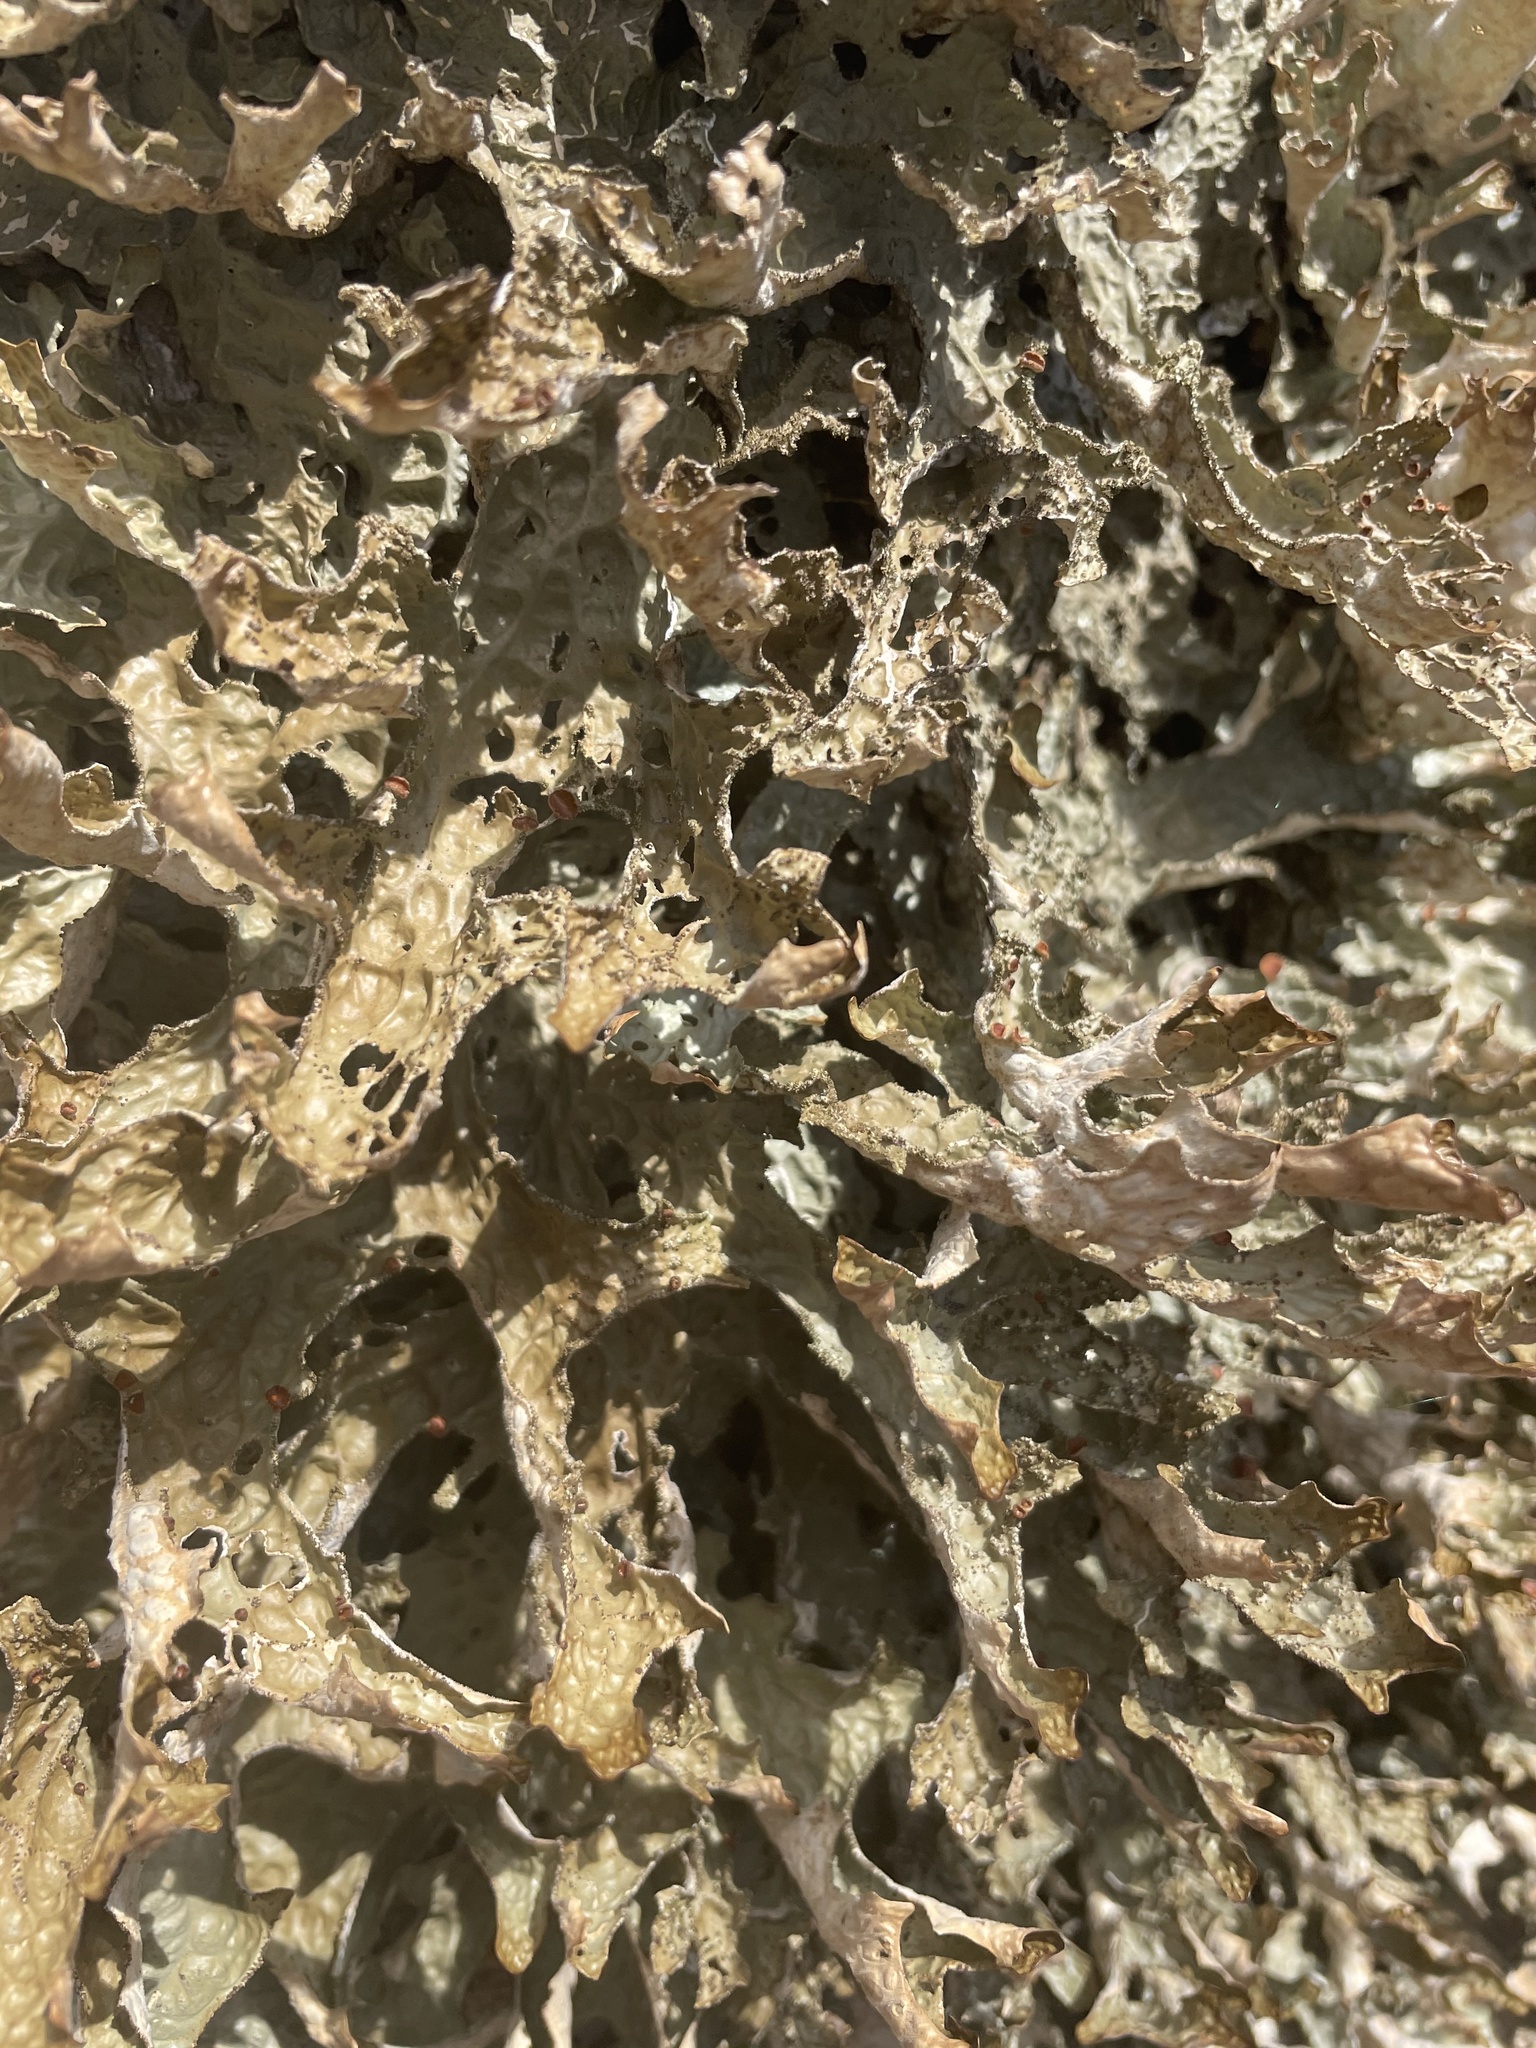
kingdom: Fungi
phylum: Ascomycota
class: Lecanoromycetes
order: Peltigerales
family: Lobariaceae
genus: Lobaria
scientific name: Lobaria pulmonaria
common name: Lungwort
